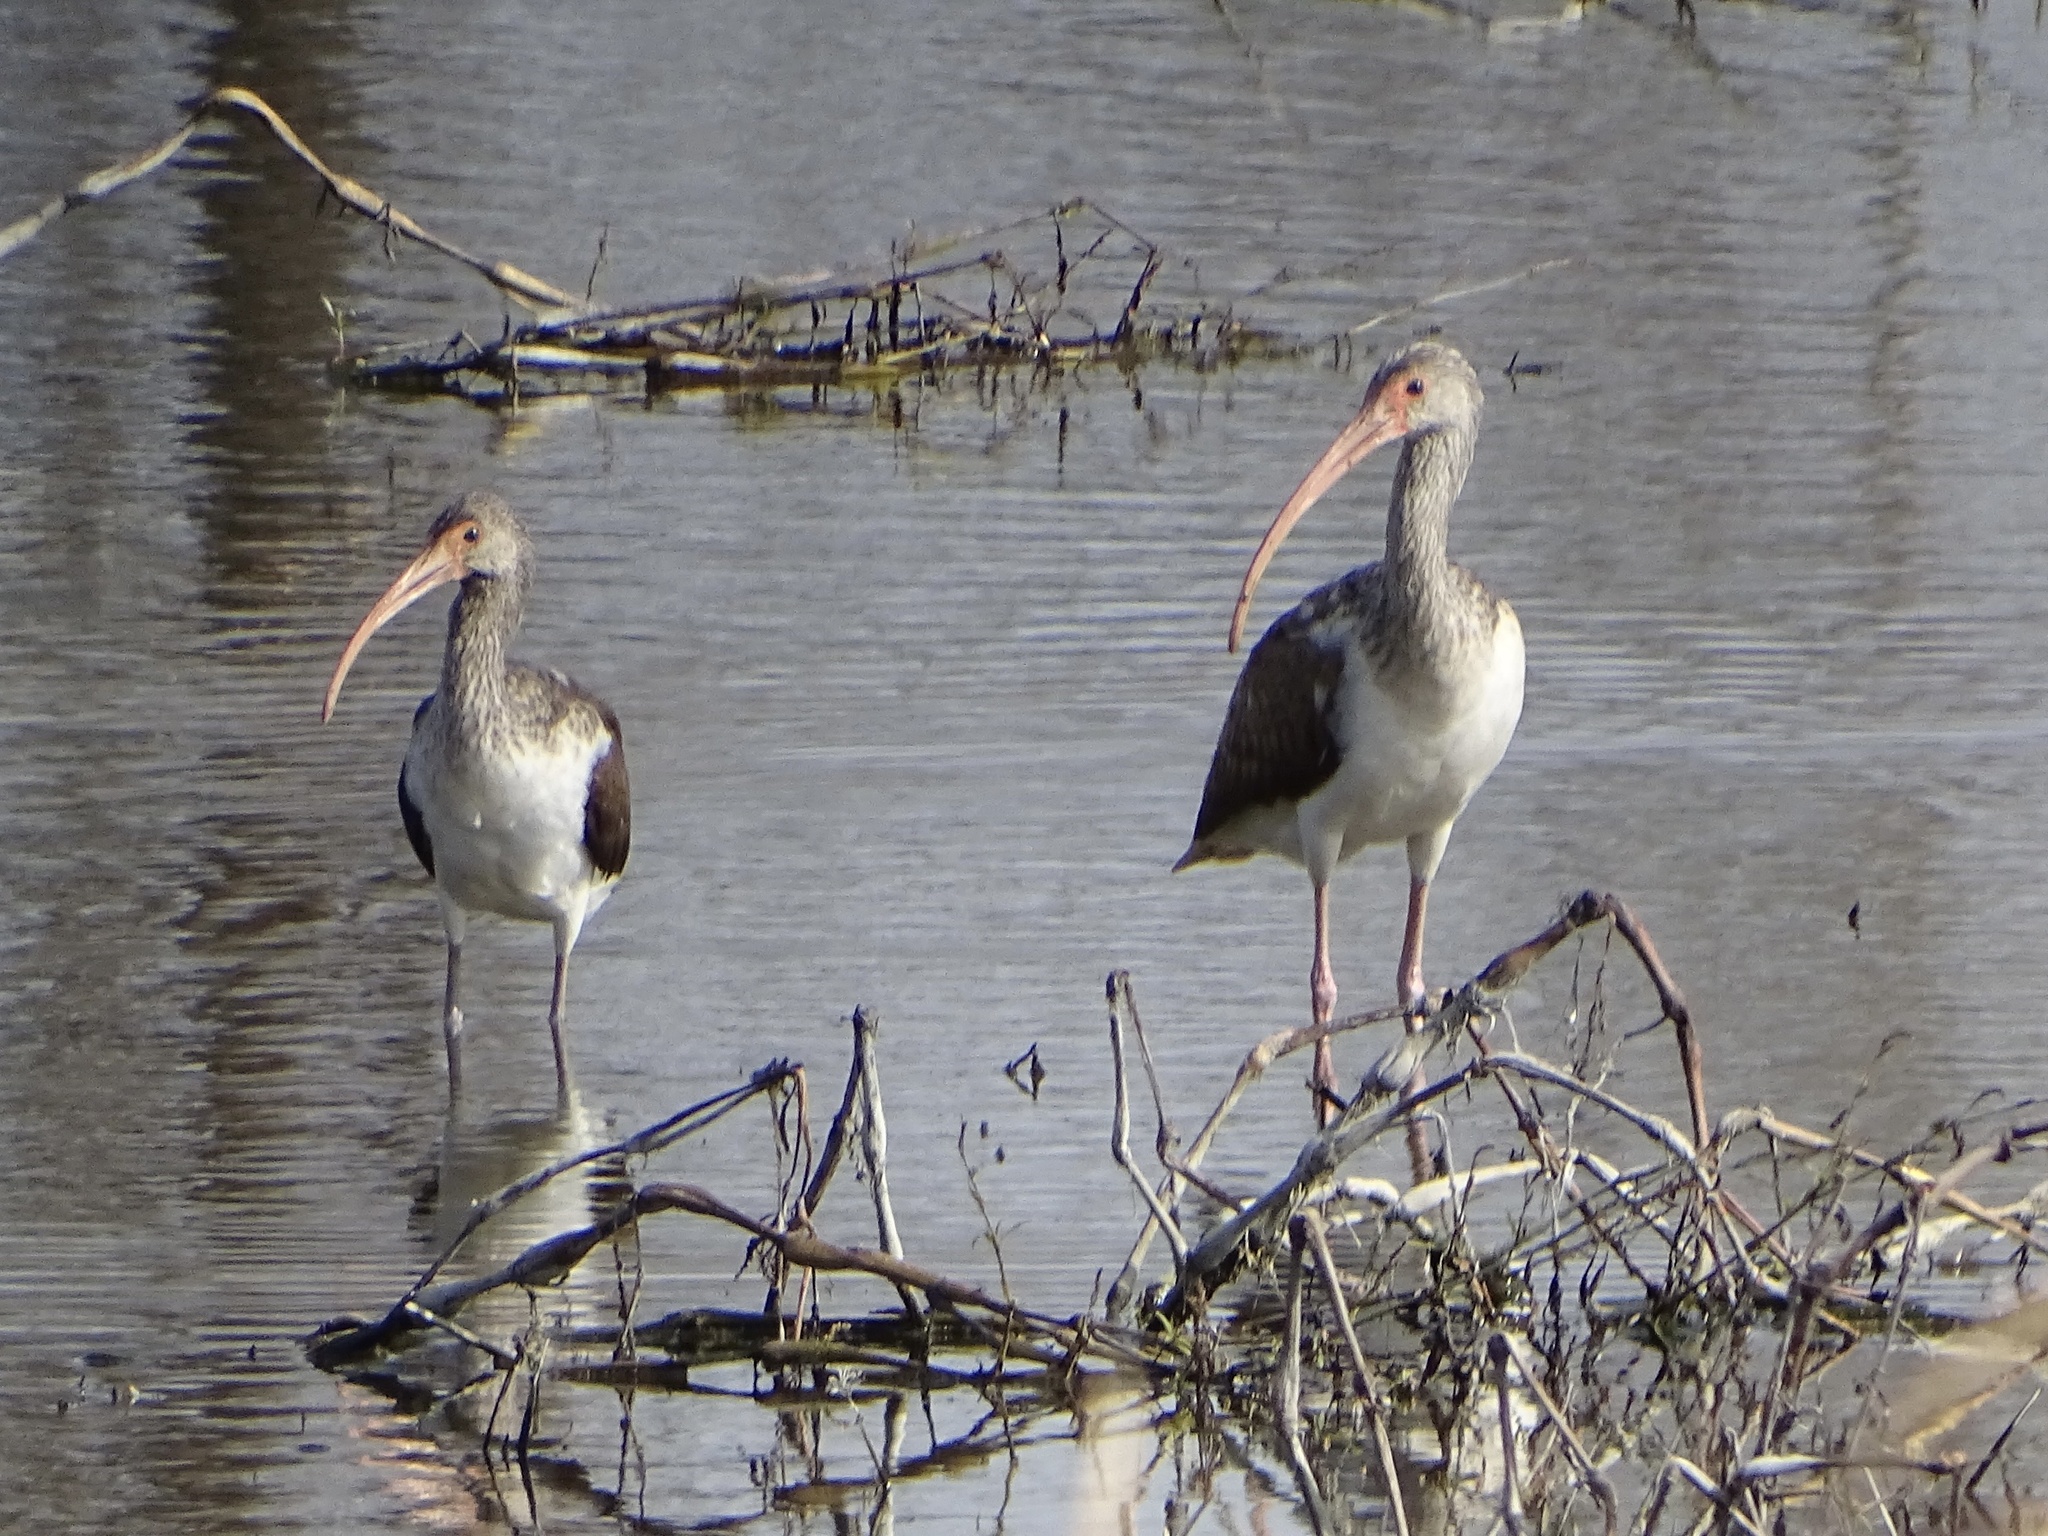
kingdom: Animalia
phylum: Chordata
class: Aves
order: Pelecaniformes
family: Threskiornithidae
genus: Eudocimus
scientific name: Eudocimus albus
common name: White ibis
